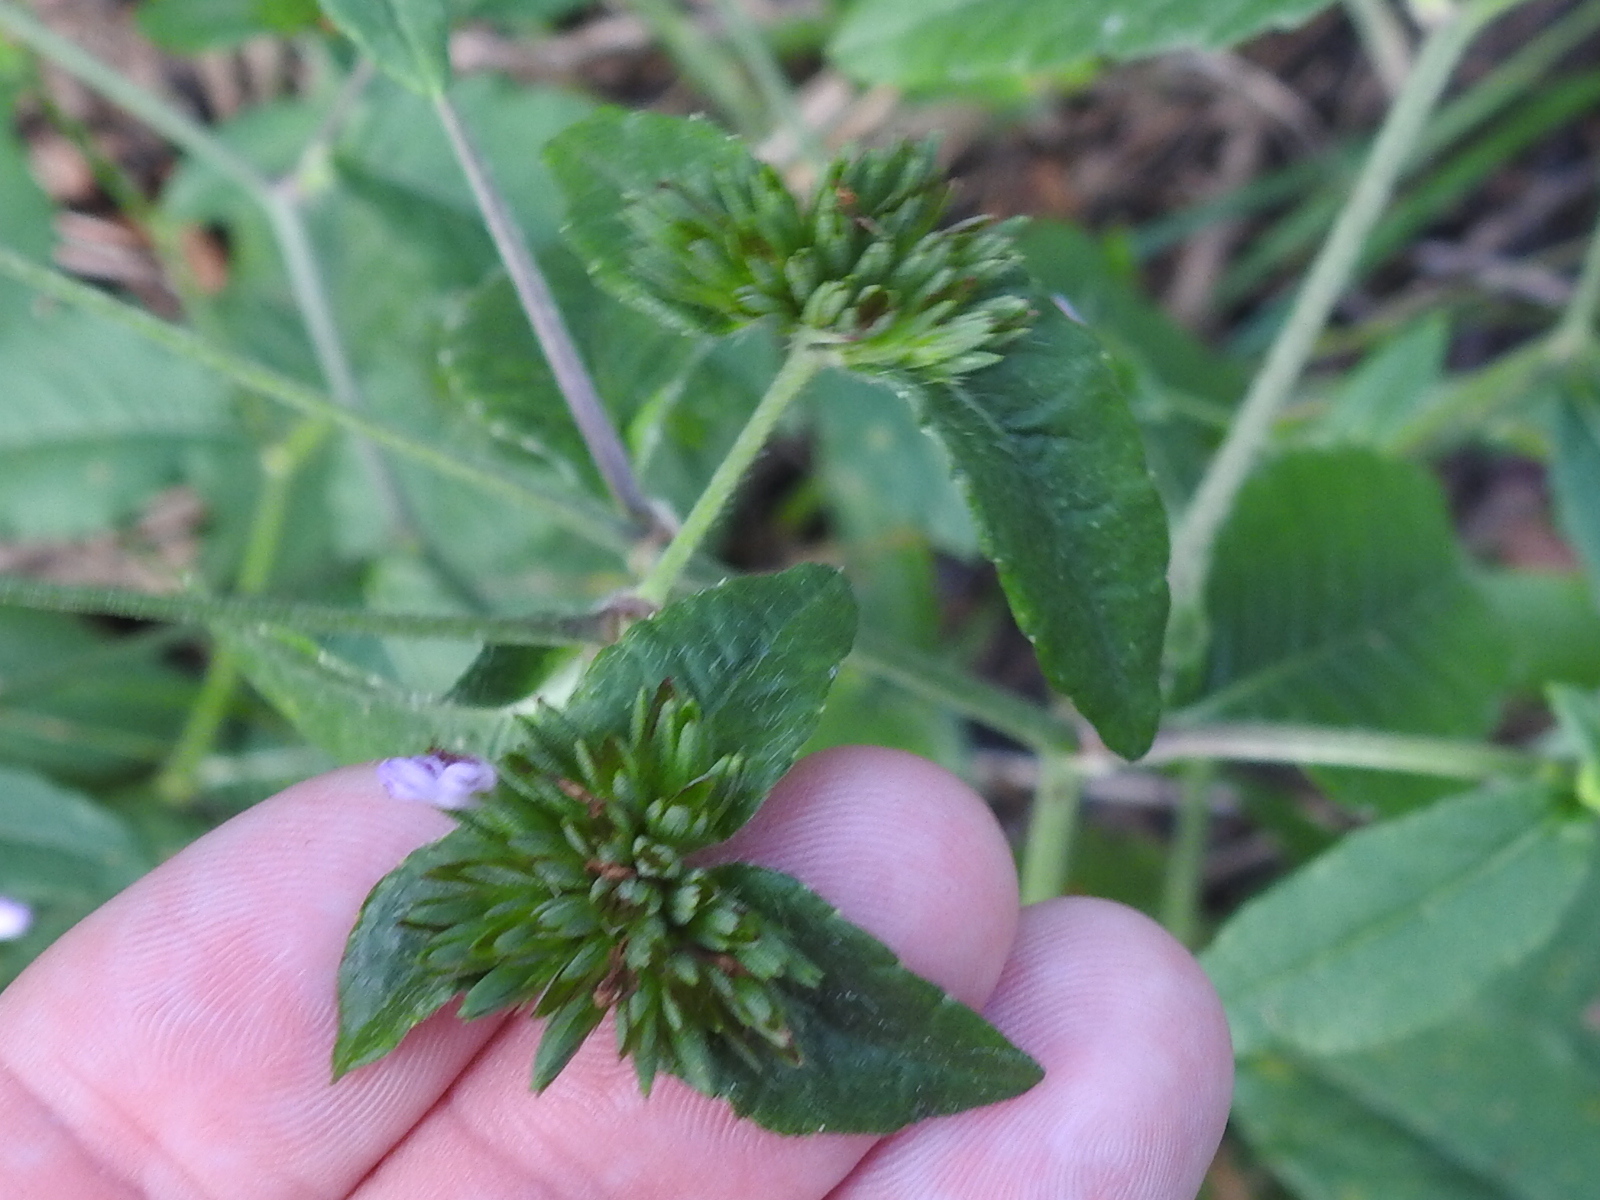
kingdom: Plantae
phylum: Tracheophyta
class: Magnoliopsida
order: Asterales
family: Asteraceae
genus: Elephantopus
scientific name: Elephantopus carolinianus
